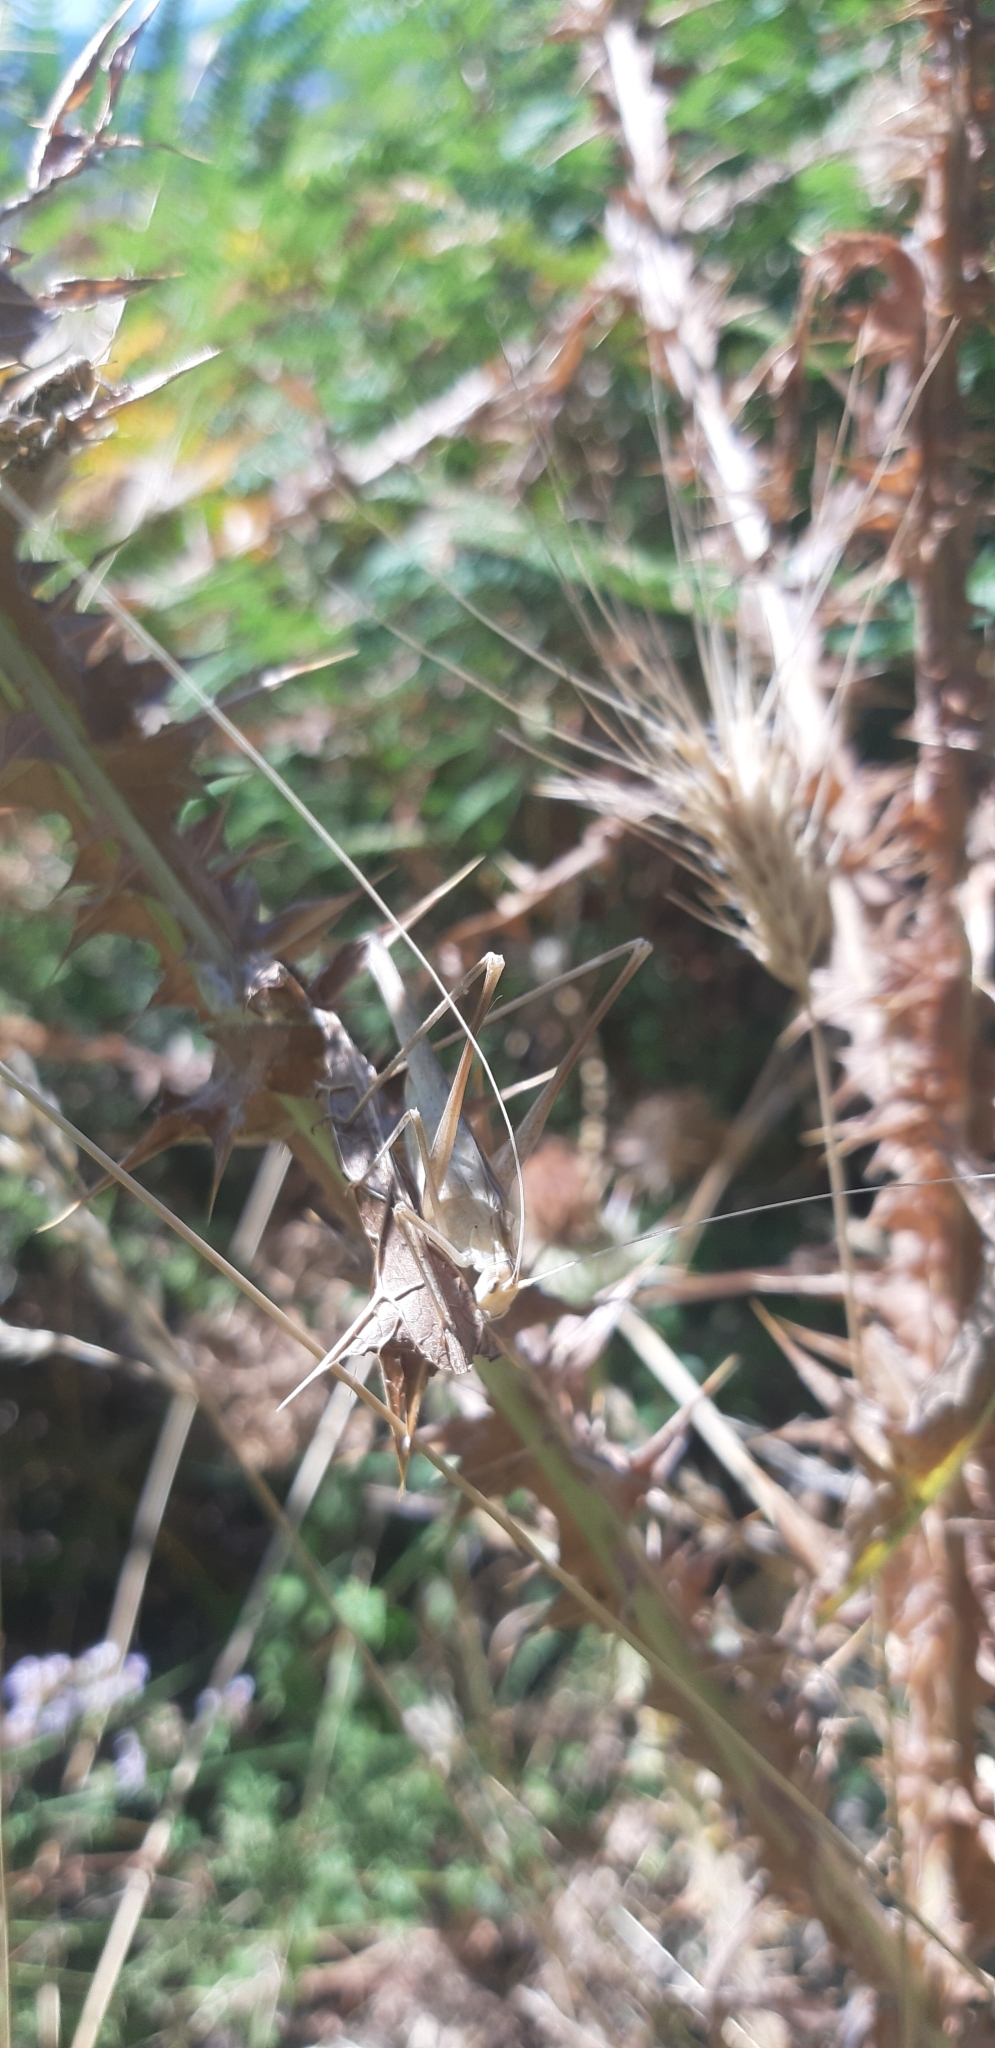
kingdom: Animalia
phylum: Arthropoda
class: Insecta
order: Orthoptera
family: Tettigoniidae
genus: Tylopsis
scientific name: Tylopsis lilifolia
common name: Lily bush-cricket
